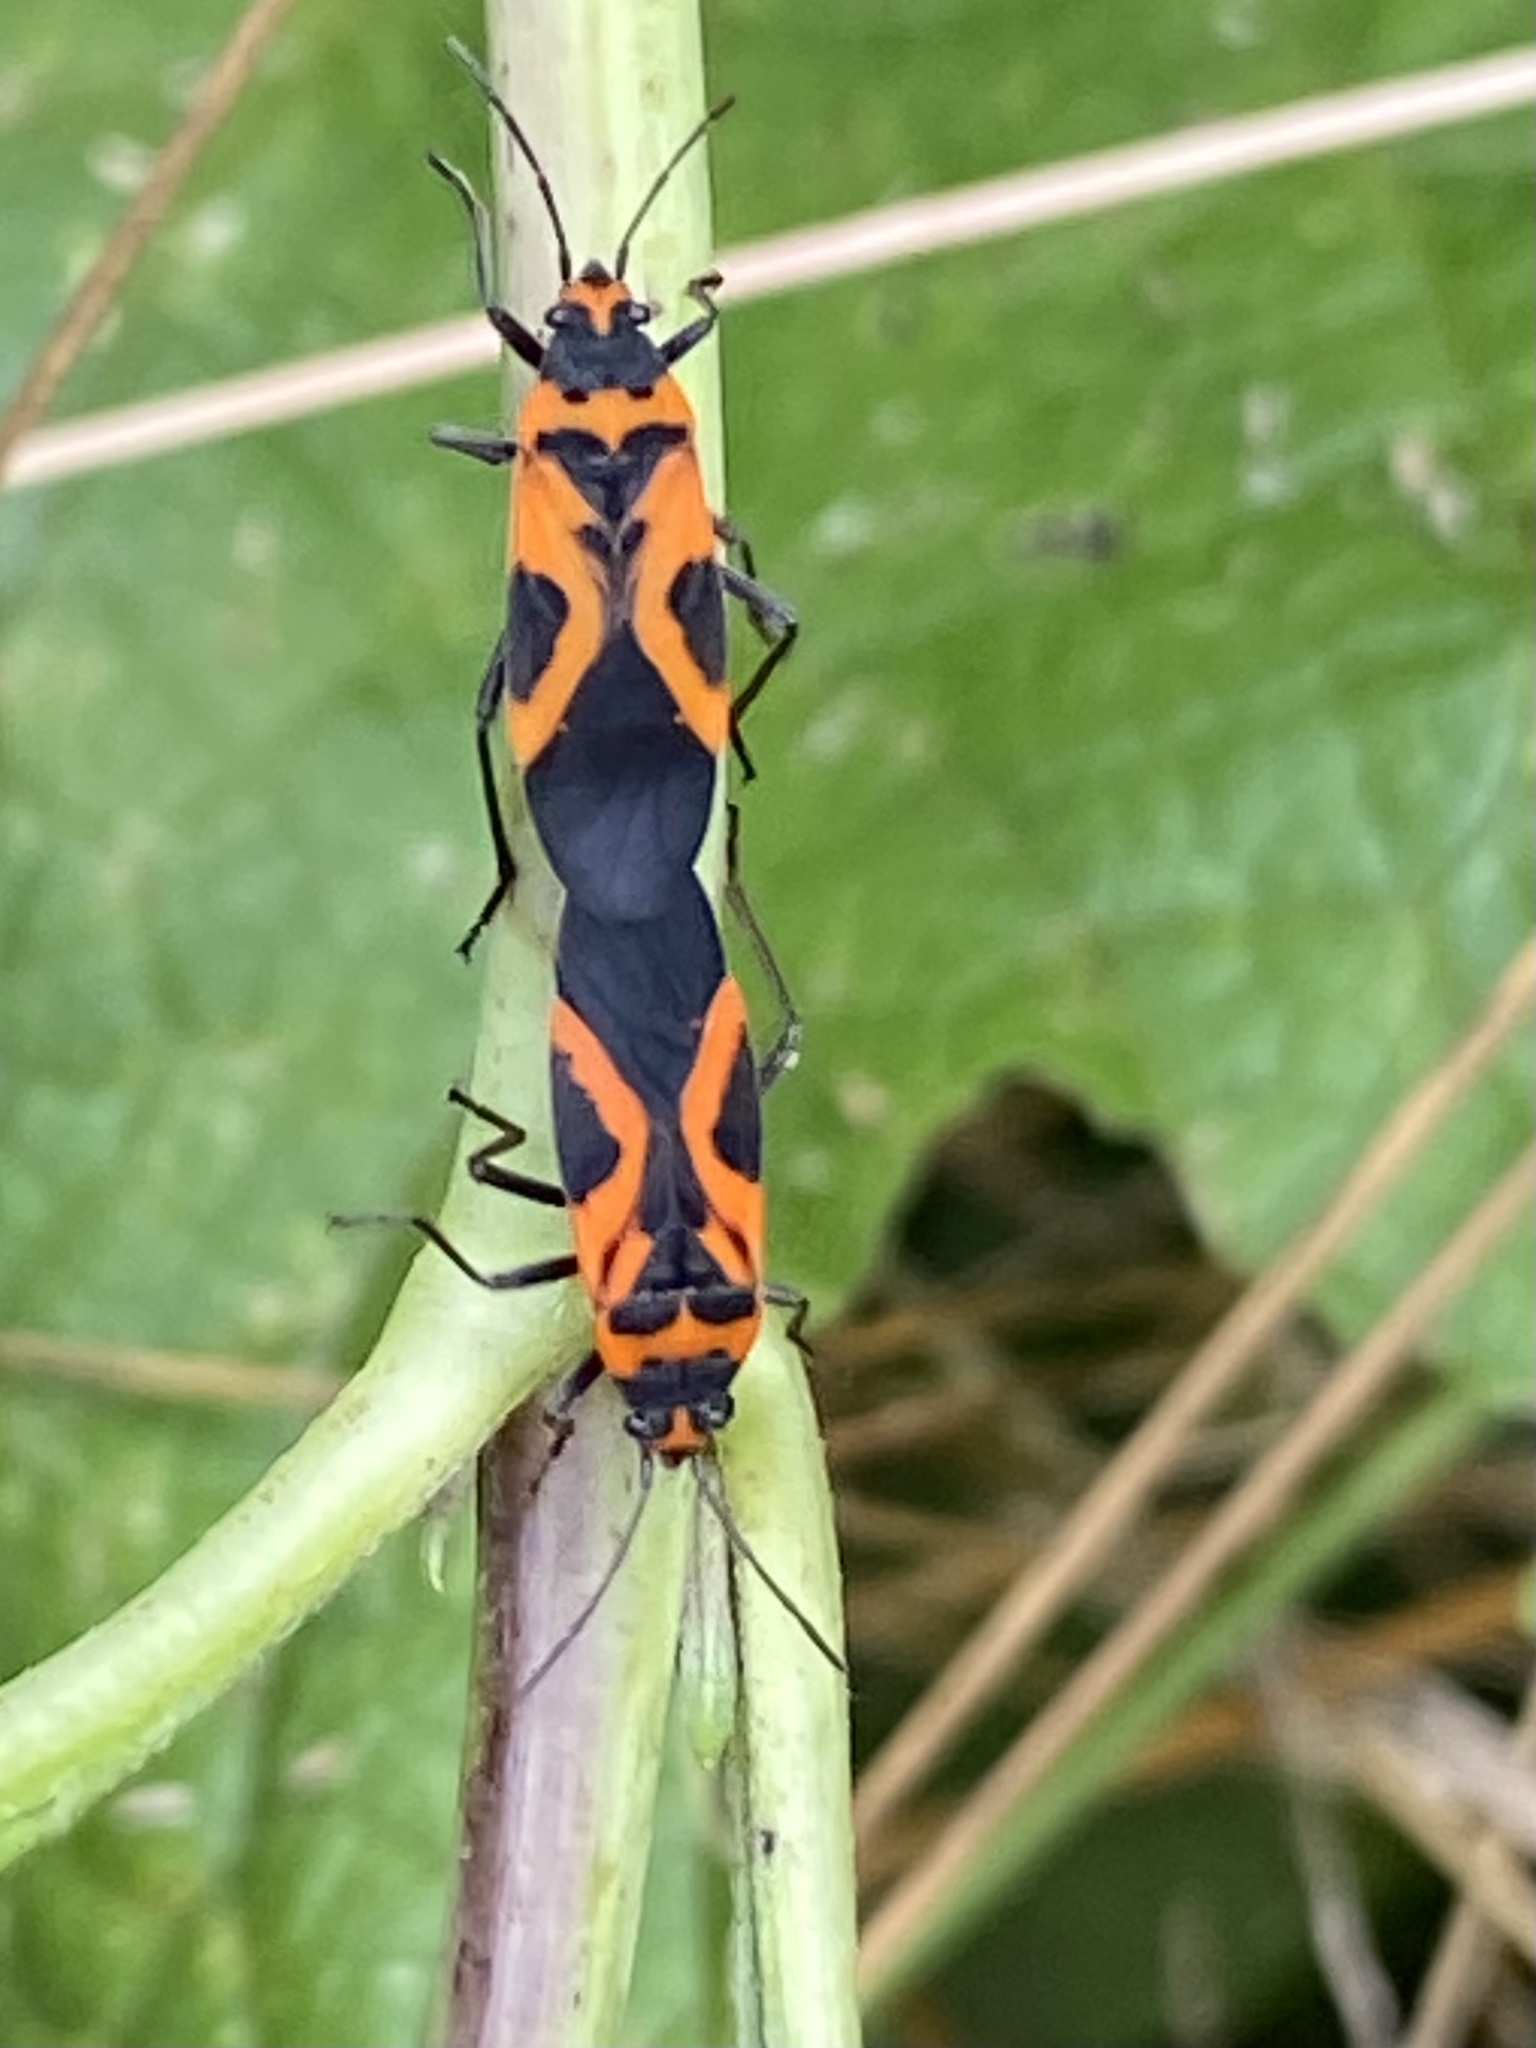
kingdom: Animalia
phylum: Arthropoda
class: Insecta
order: Hemiptera
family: Lygaeidae
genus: Lygaeus
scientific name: Lygaeus turcicus
